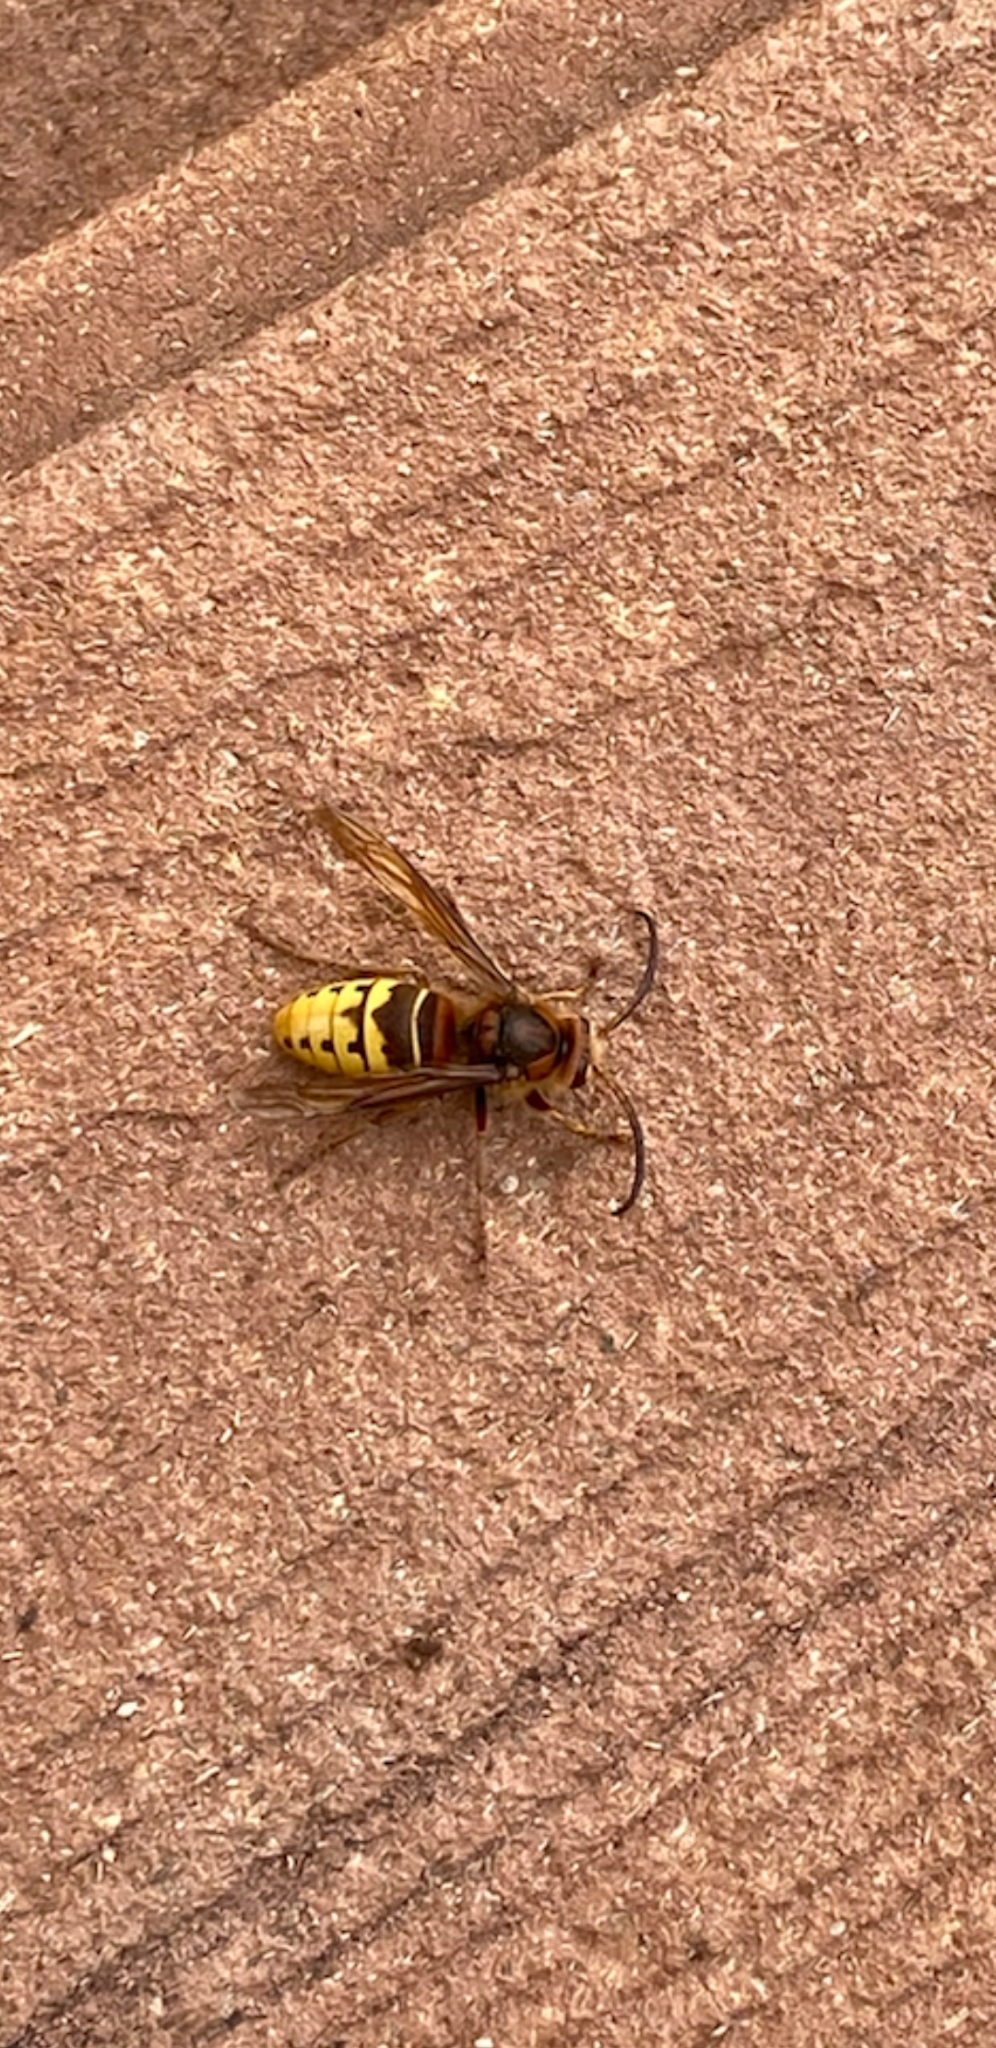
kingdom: Animalia
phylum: Arthropoda
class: Insecta
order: Hymenoptera
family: Vespidae
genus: Vespa
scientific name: Vespa crabro
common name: Hornet
